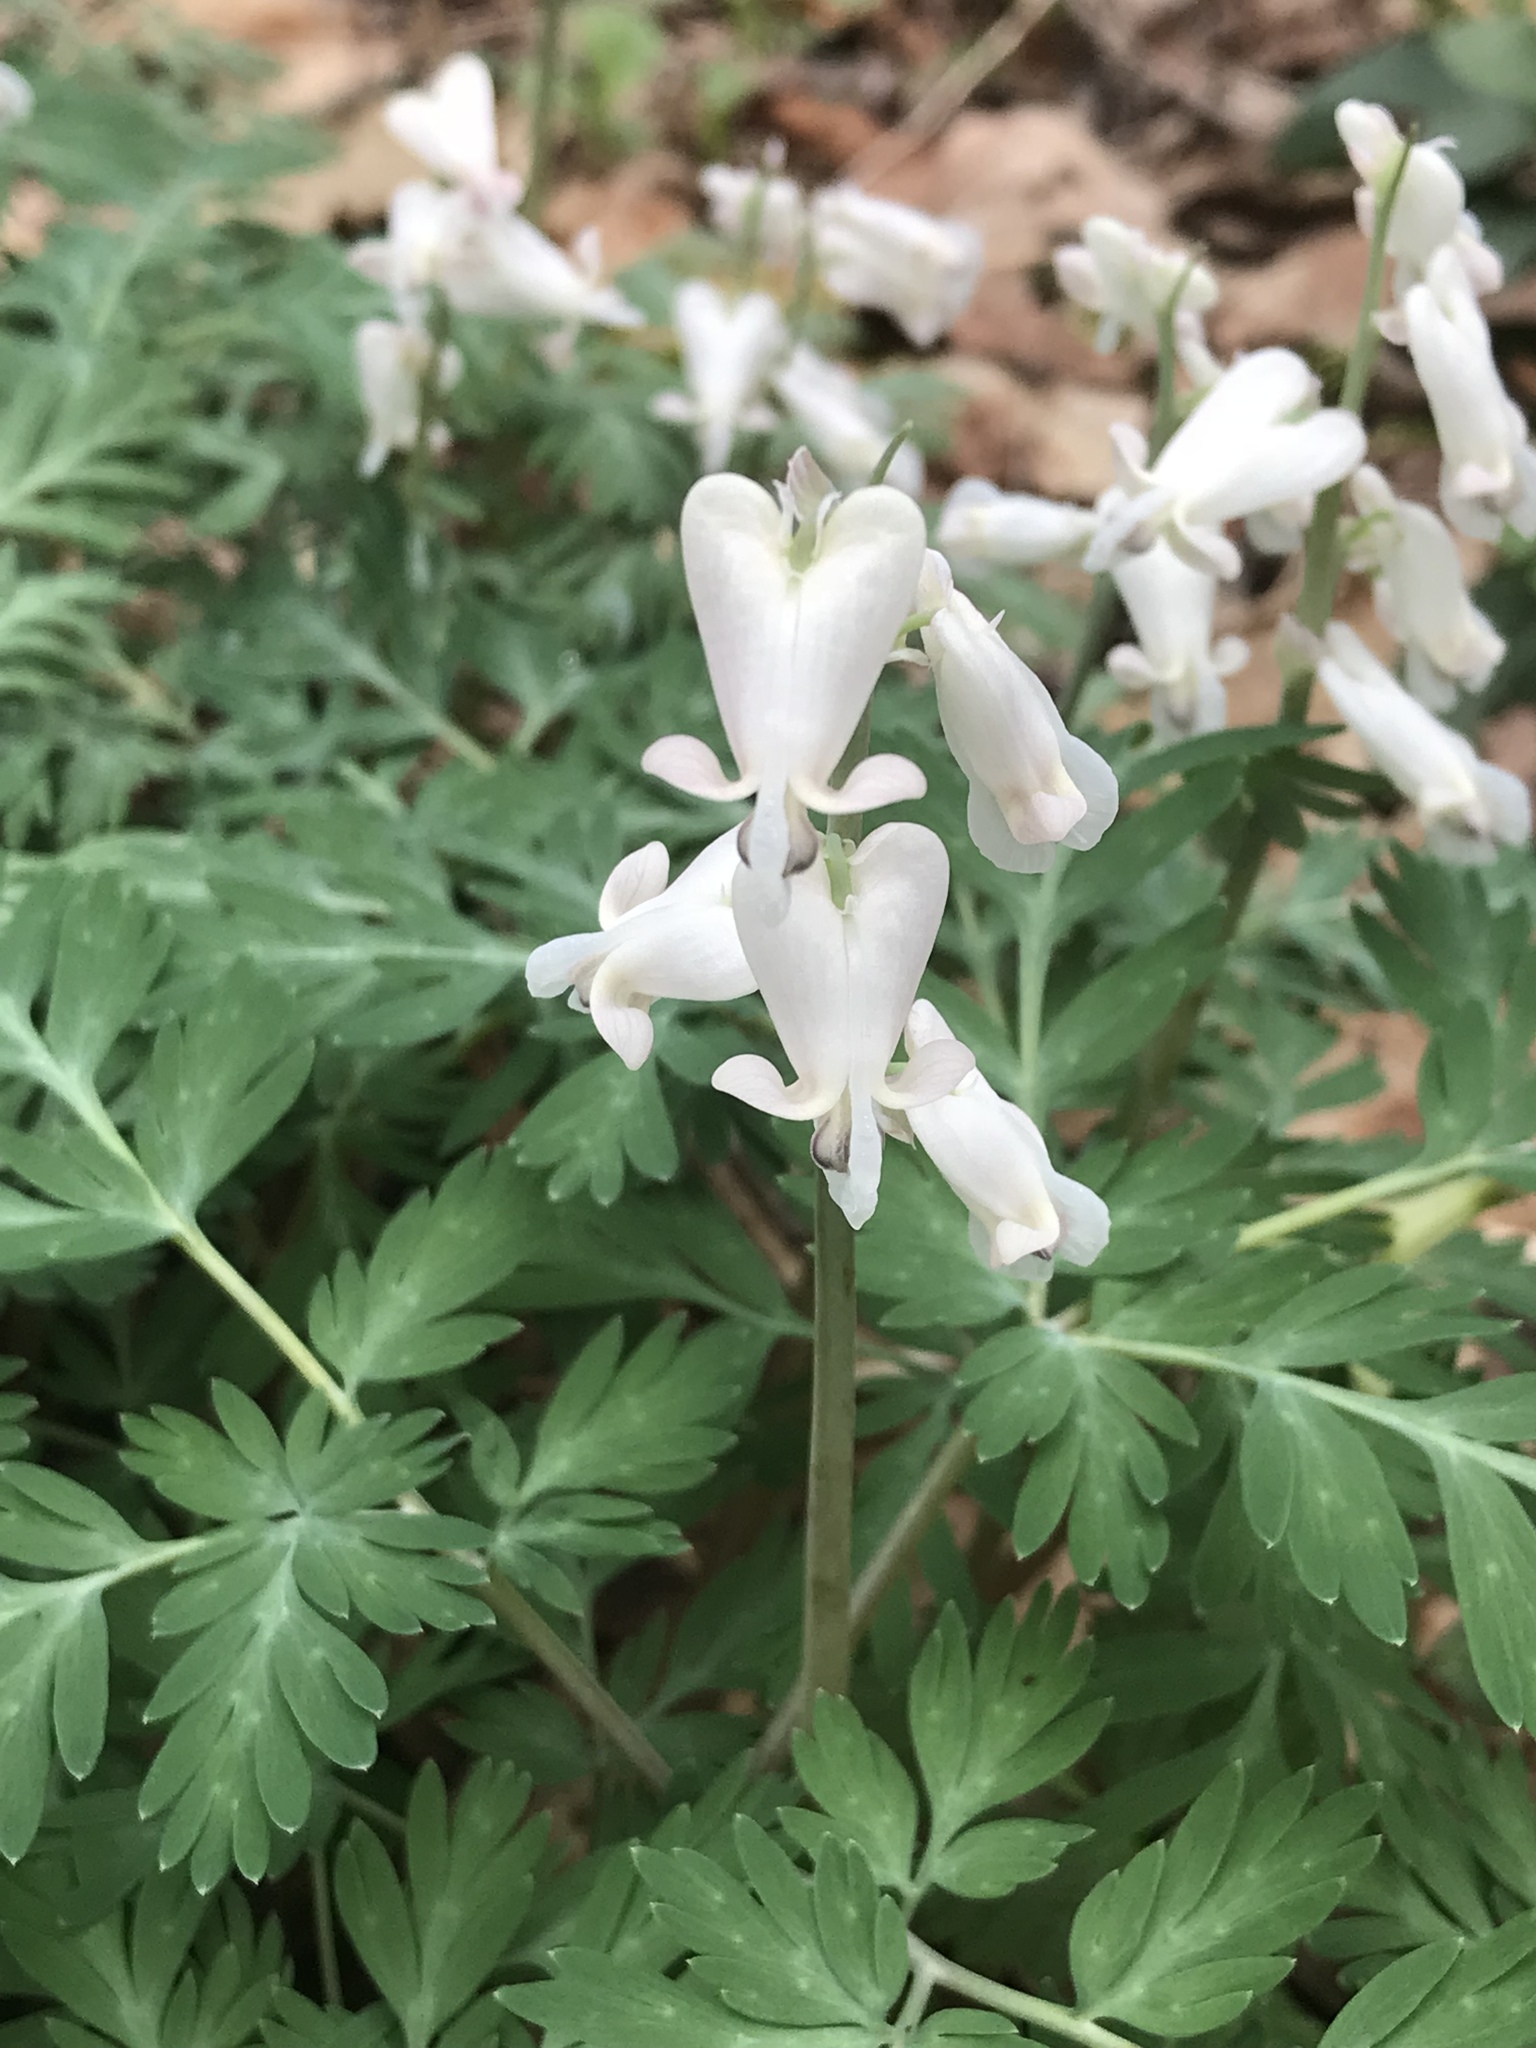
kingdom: Plantae
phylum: Tracheophyta
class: Magnoliopsida
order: Ranunculales
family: Papaveraceae
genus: Dicentra
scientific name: Dicentra canadensis
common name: Squirrel-corn
